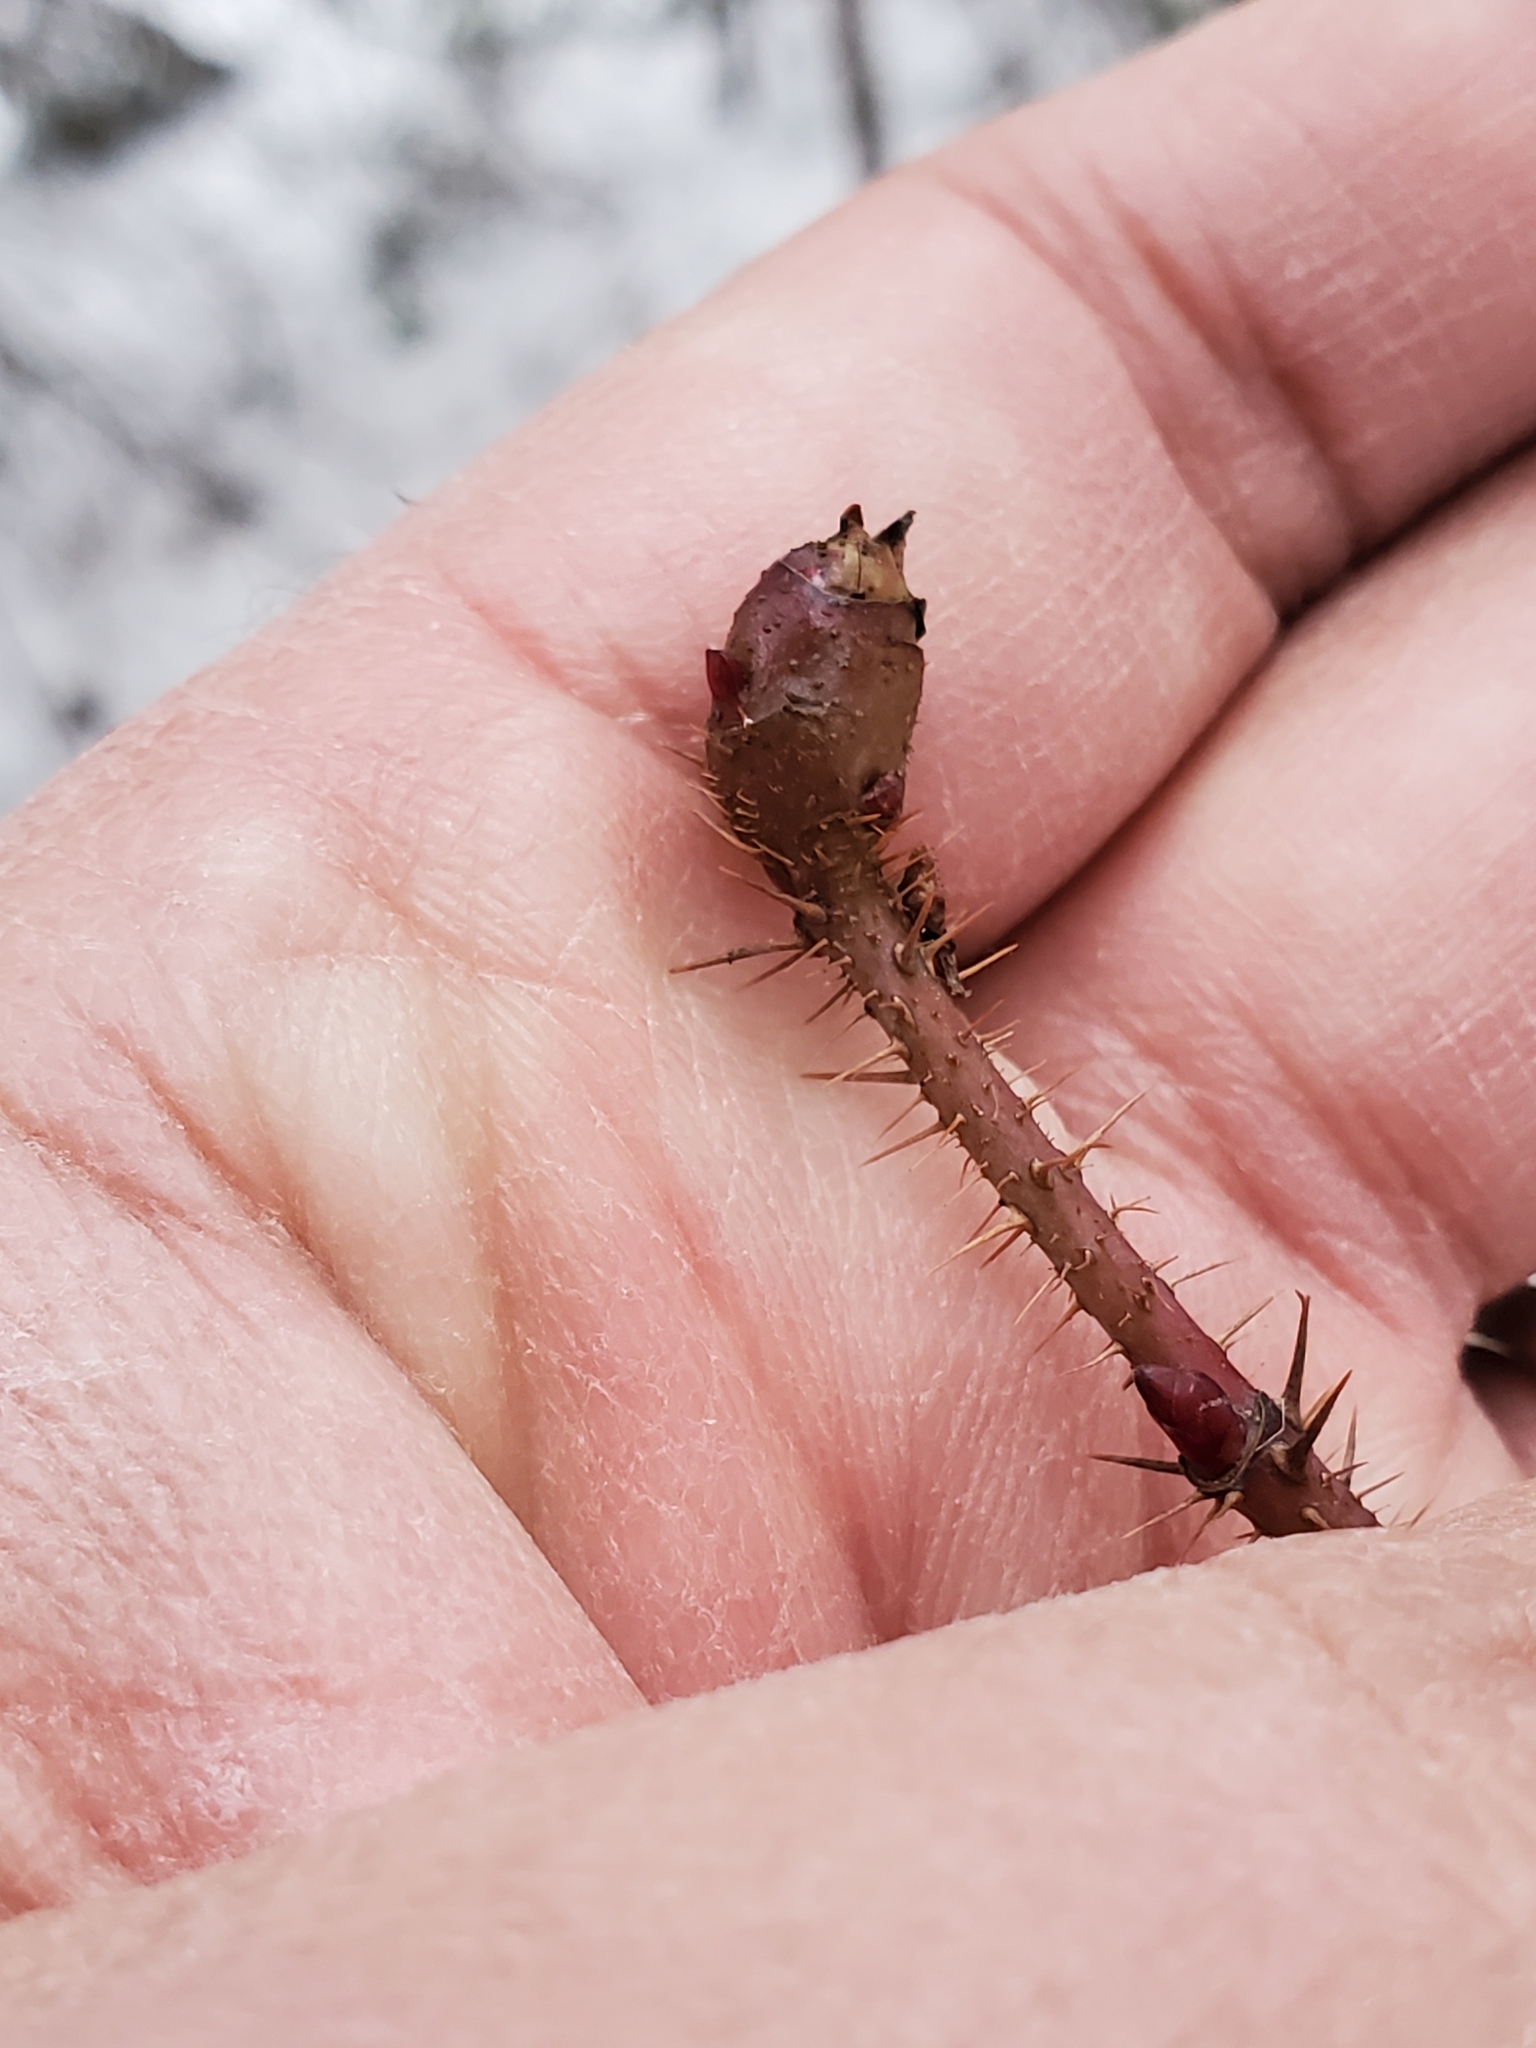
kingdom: Animalia
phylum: Arthropoda
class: Insecta
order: Hymenoptera
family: Cynipidae
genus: Diplolepis
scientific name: Diplolepis triforma
